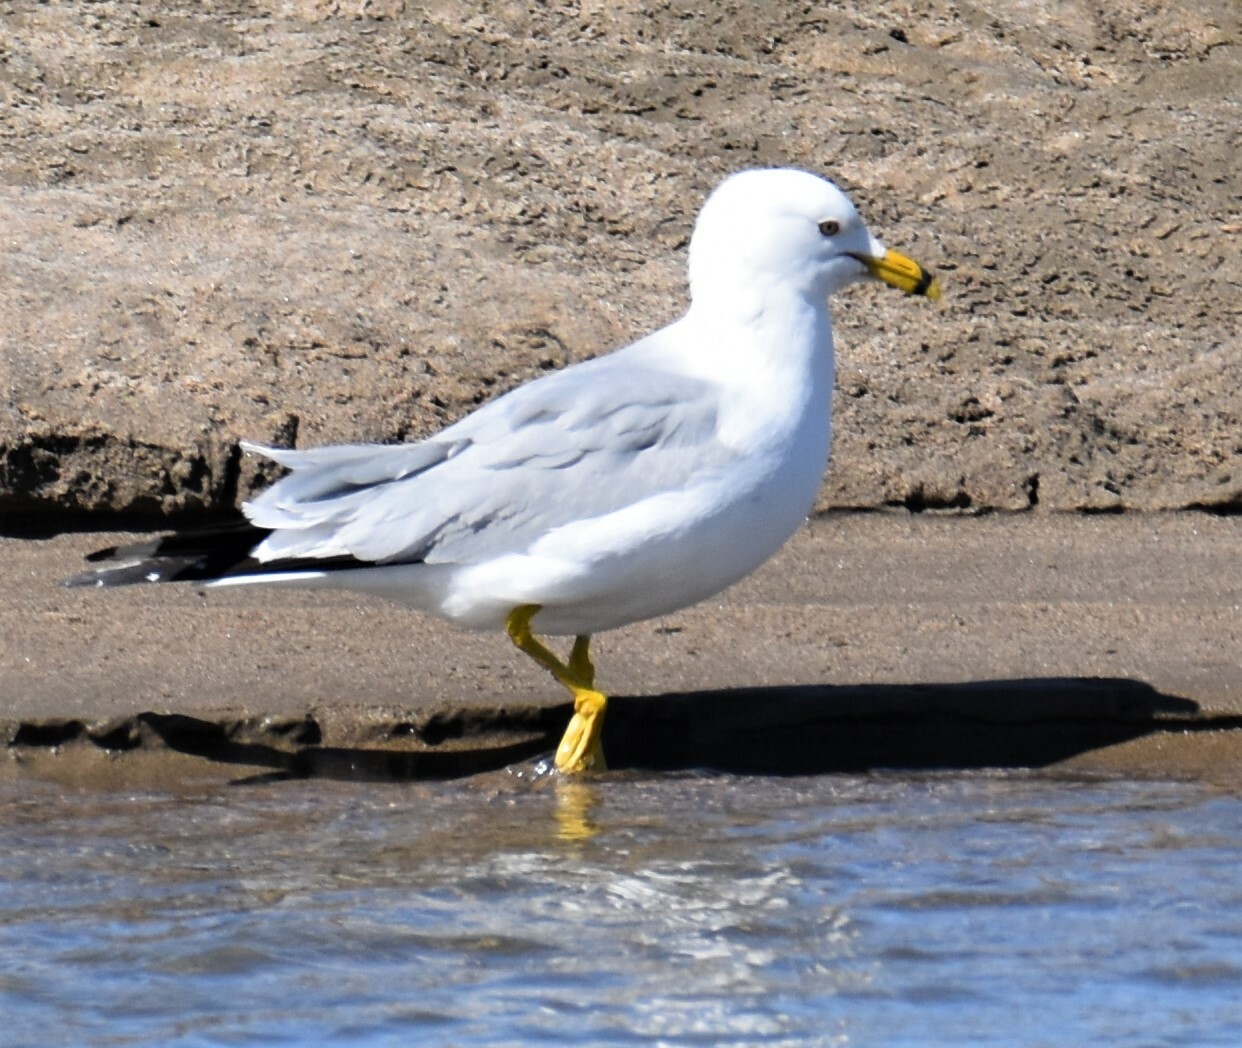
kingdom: Animalia
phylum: Chordata
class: Aves
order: Charadriiformes
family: Laridae
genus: Larus
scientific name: Larus delawarensis
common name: Ring-billed gull
